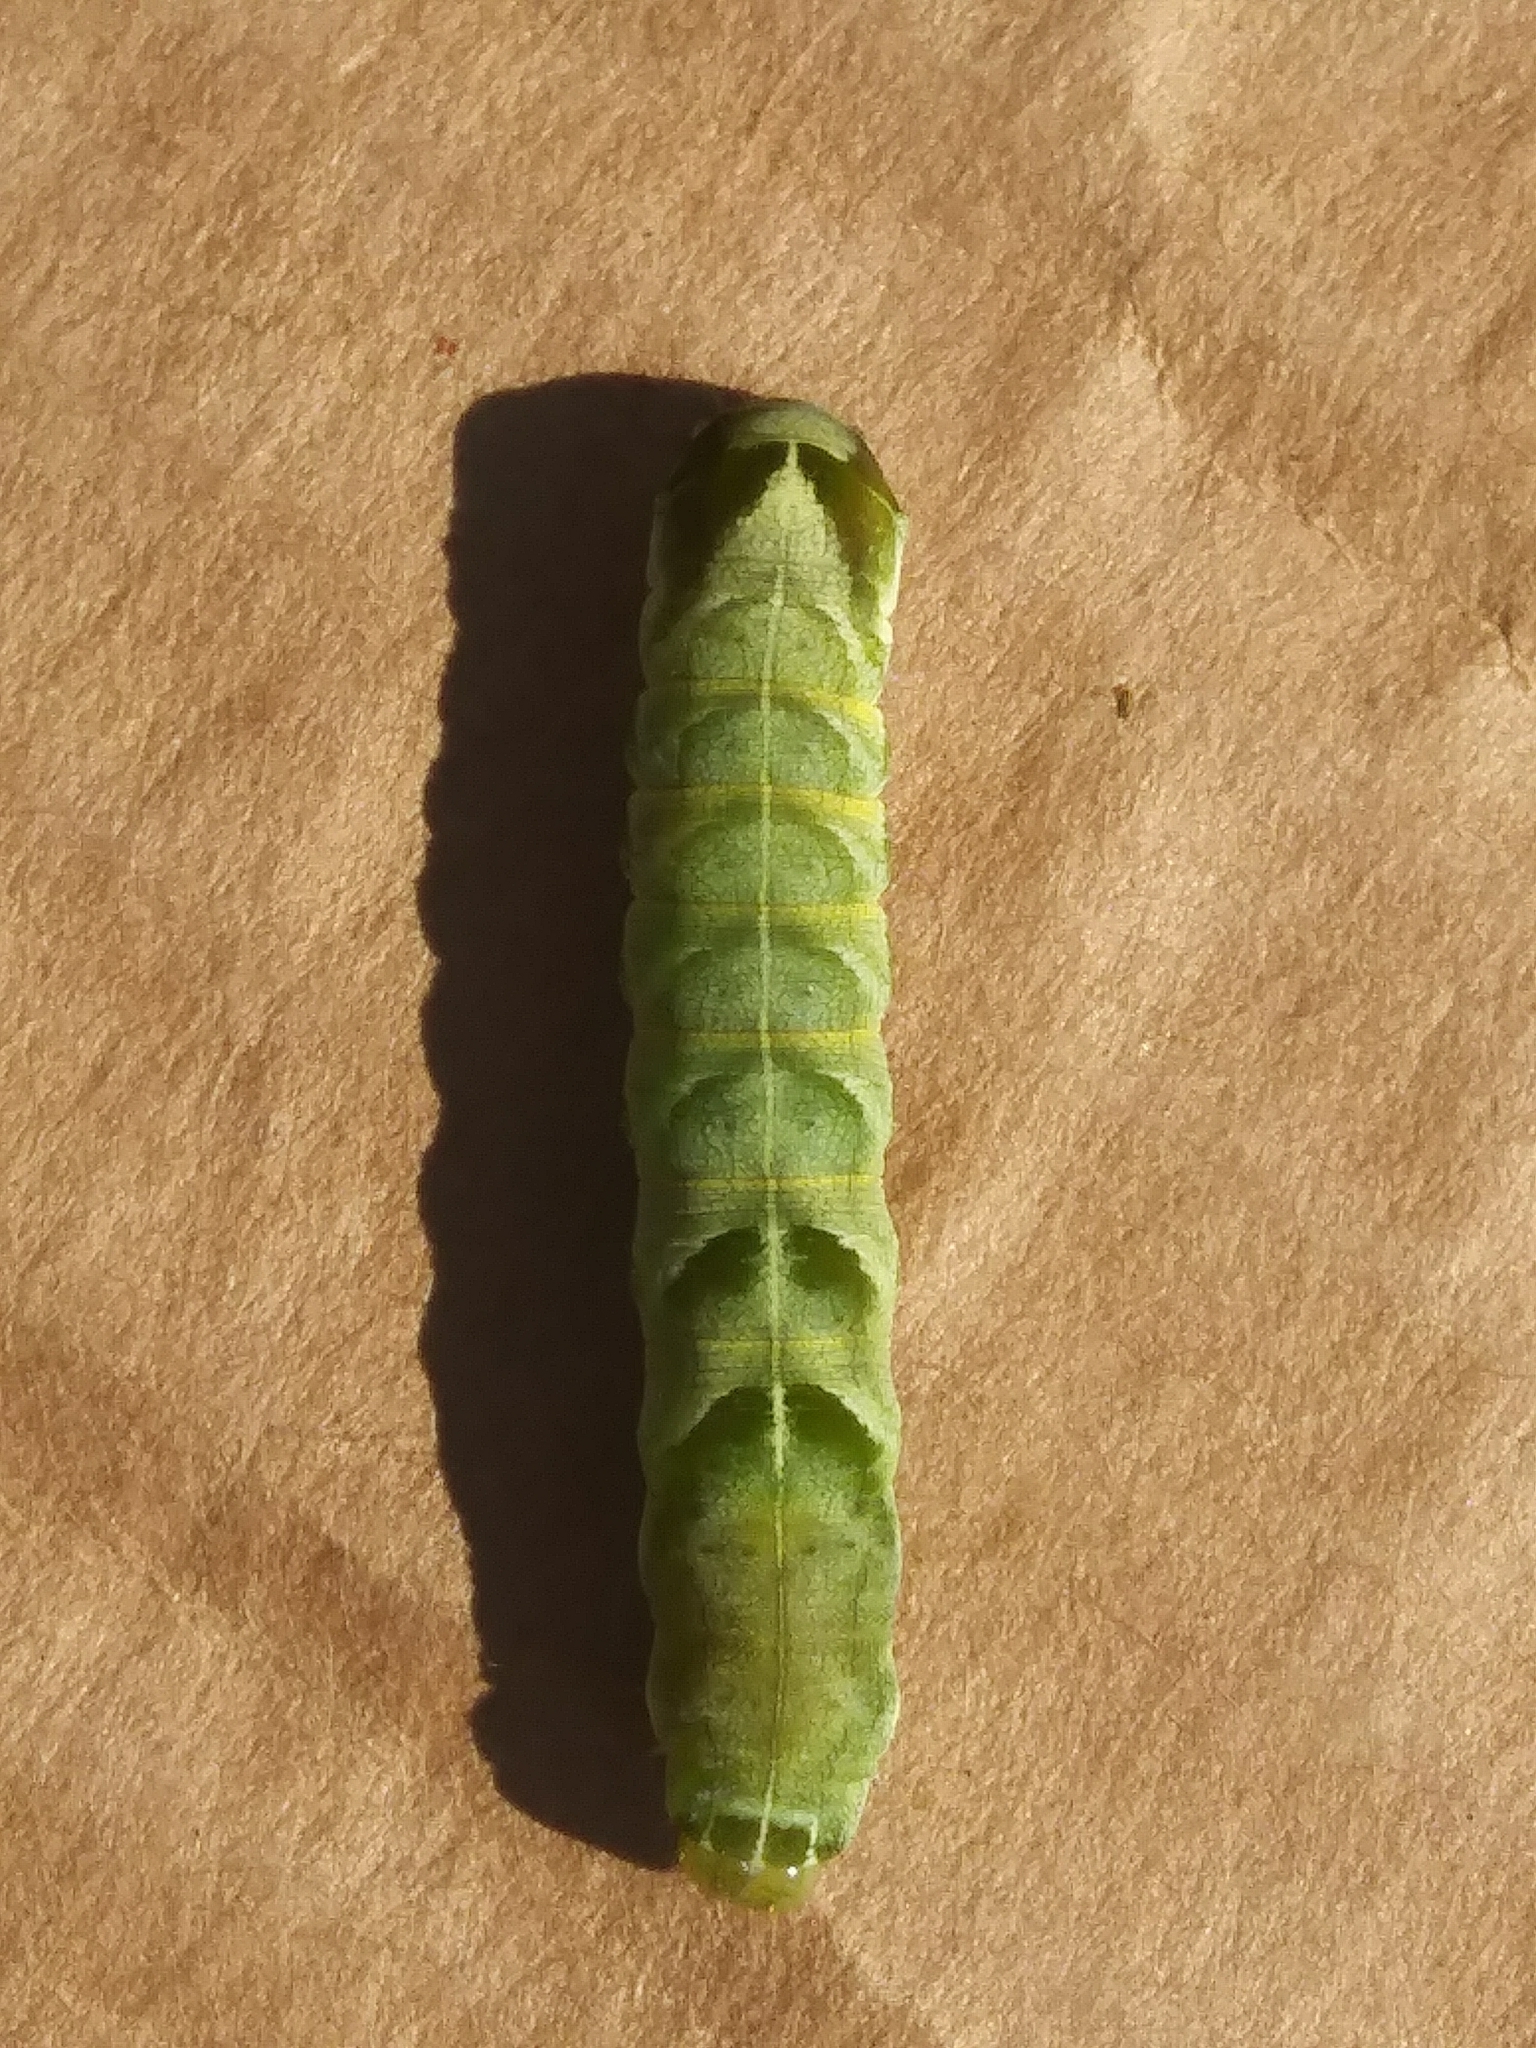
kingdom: Animalia
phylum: Arthropoda
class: Insecta
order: Lepidoptera
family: Noctuidae
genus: Melanchra
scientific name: Melanchra adjuncta
